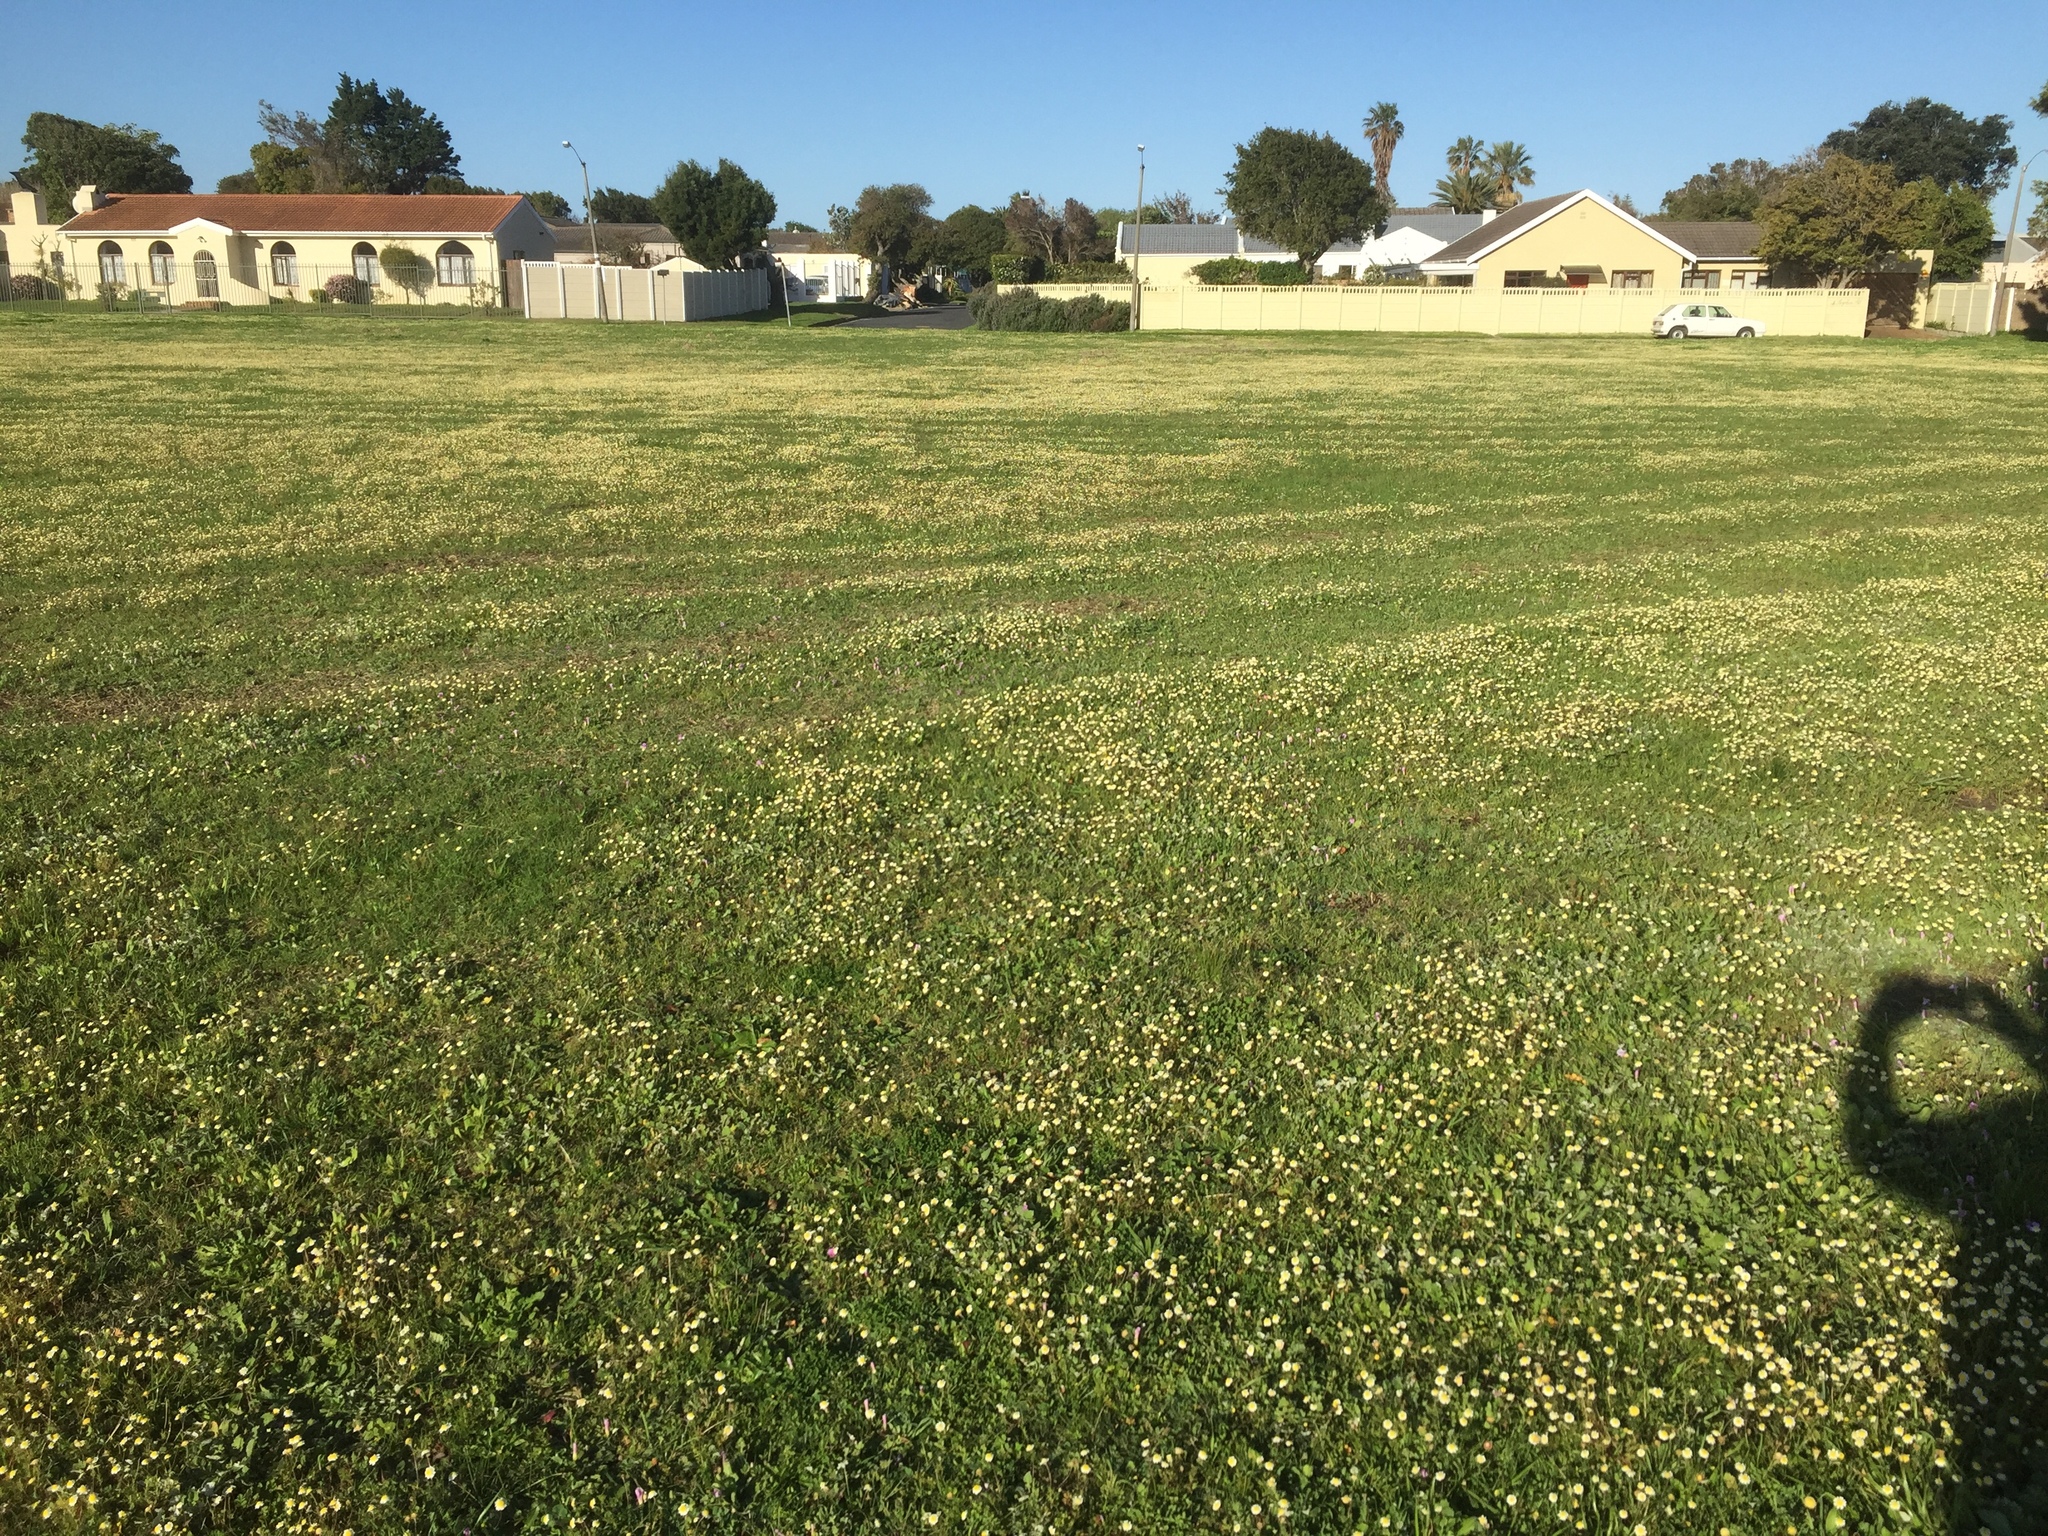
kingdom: Plantae
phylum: Tracheophyta
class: Magnoliopsida
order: Asterales
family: Asteraceae
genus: Cotula
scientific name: Cotula turbinata
